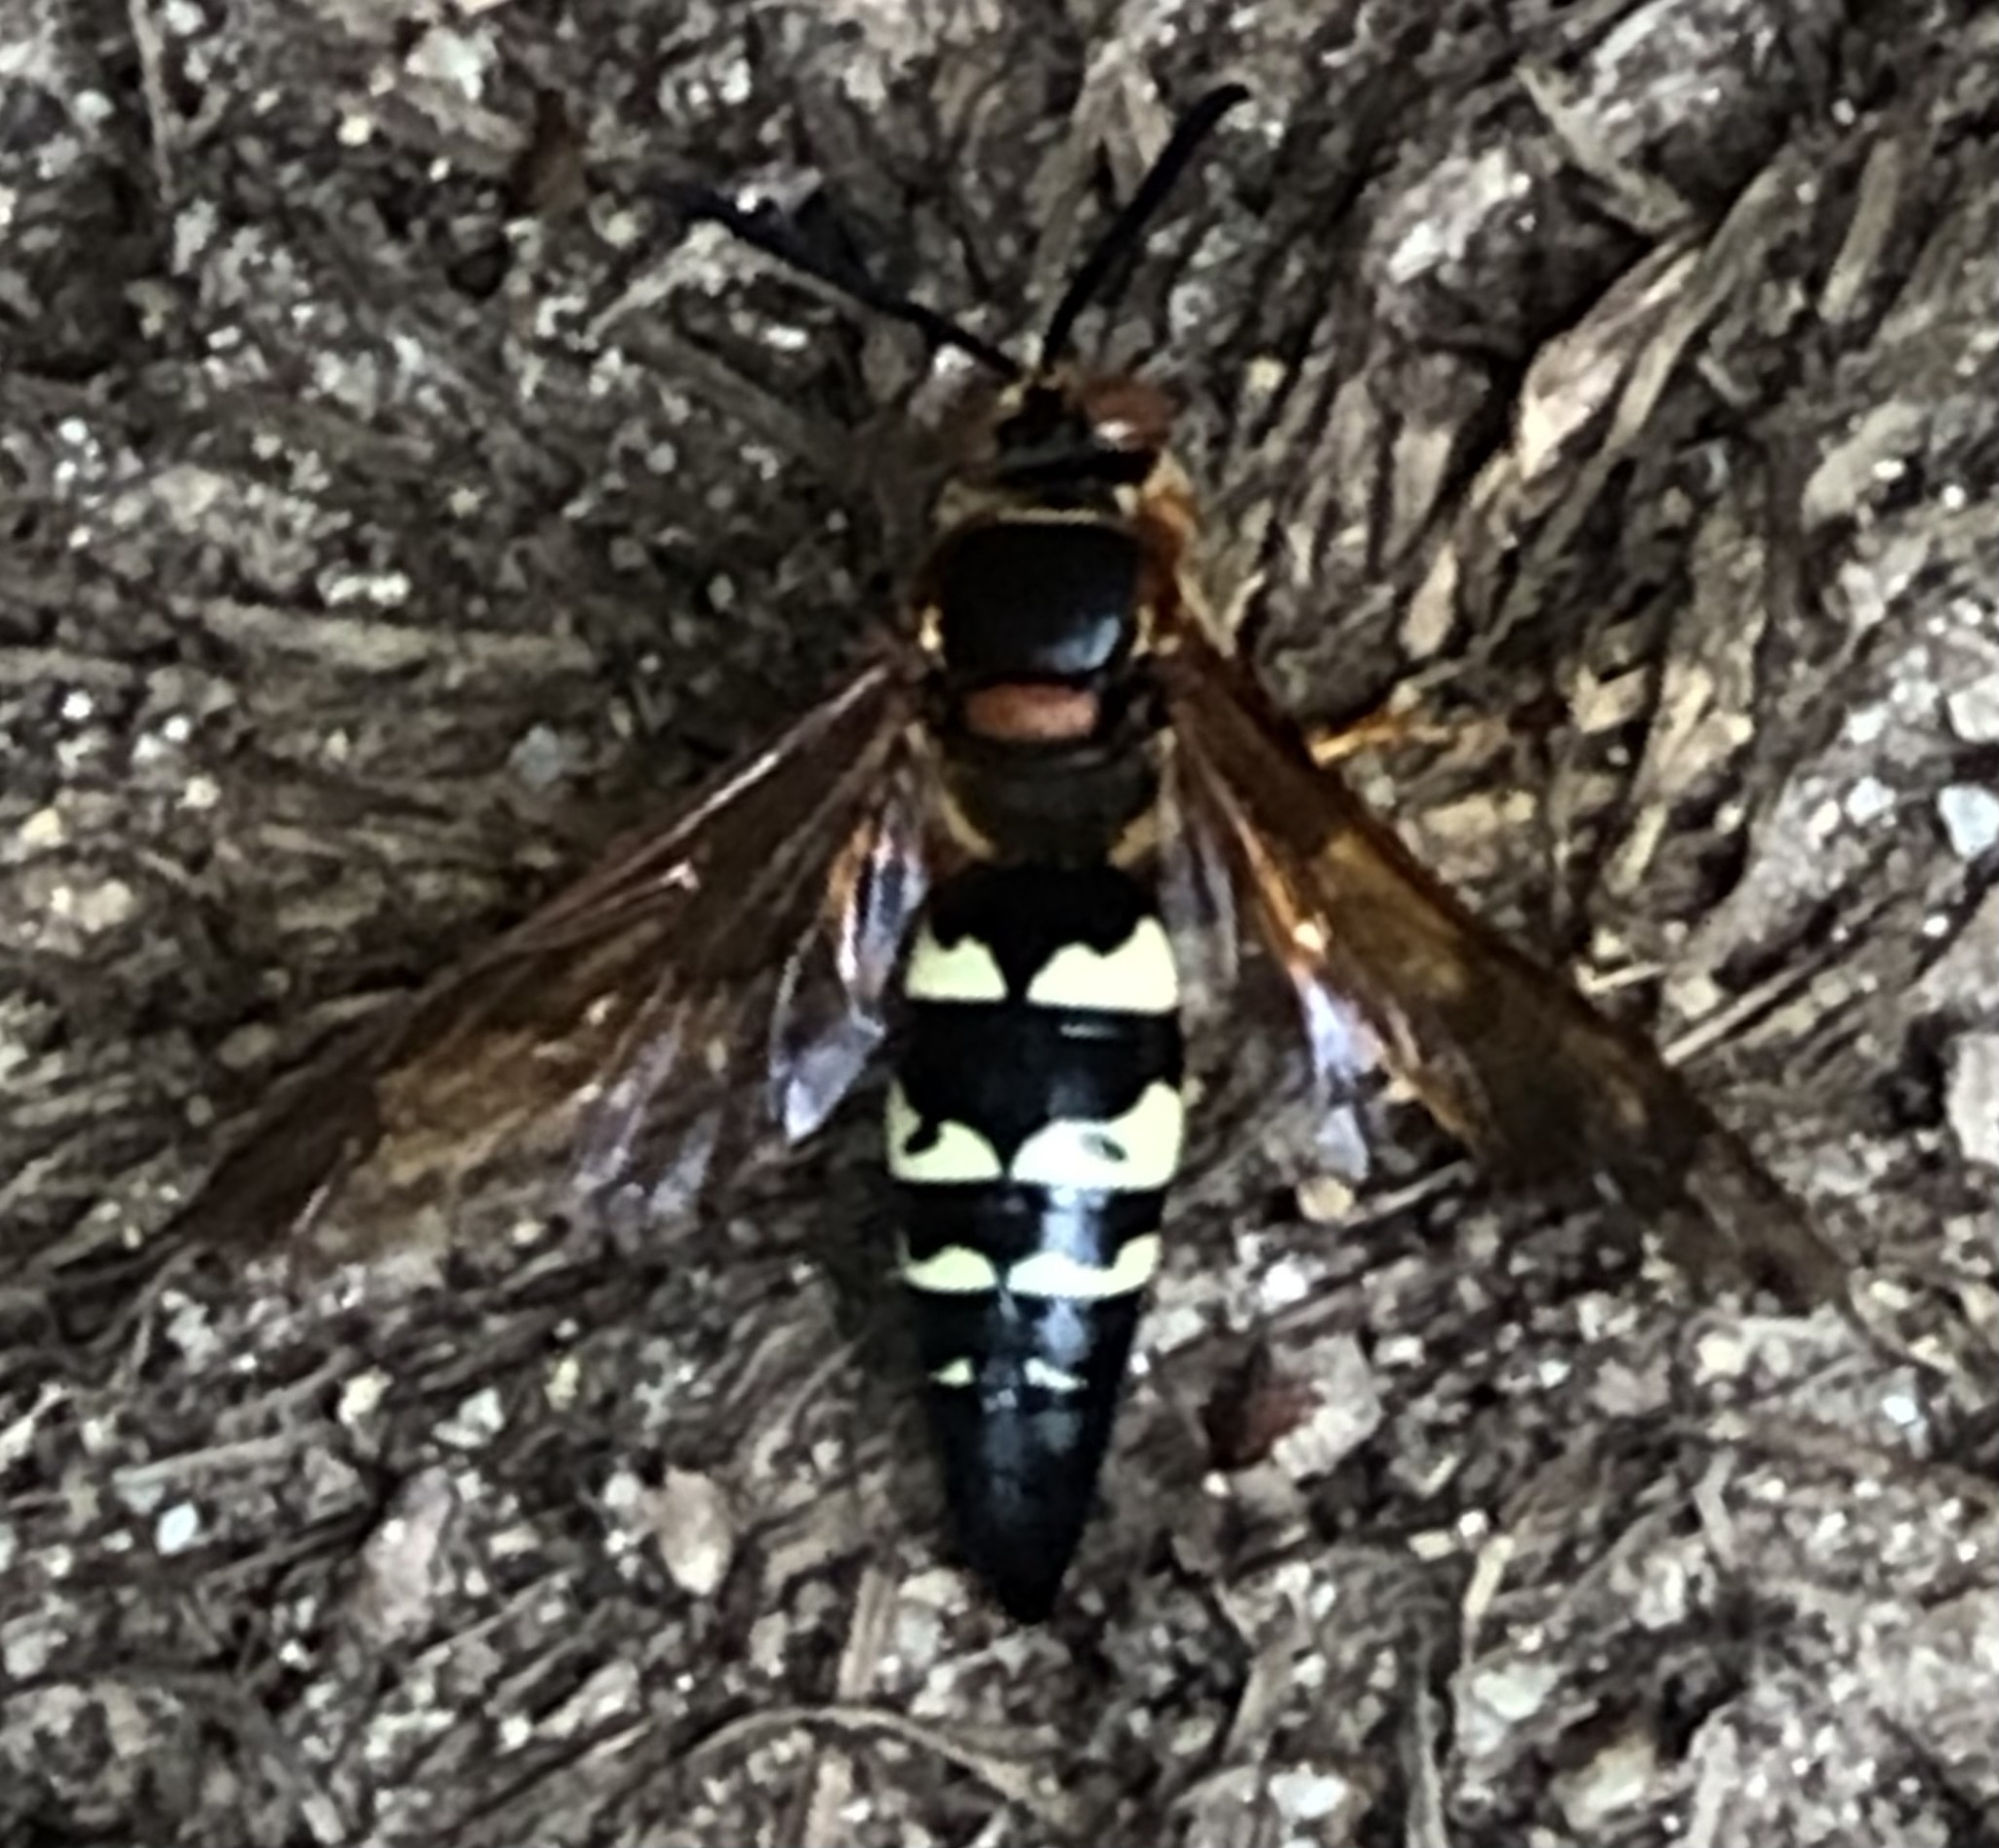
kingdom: Animalia
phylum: Arthropoda
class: Insecta
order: Hymenoptera
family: Crabronidae
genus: Sphecius
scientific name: Sphecius speciosus
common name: Cicada killer
